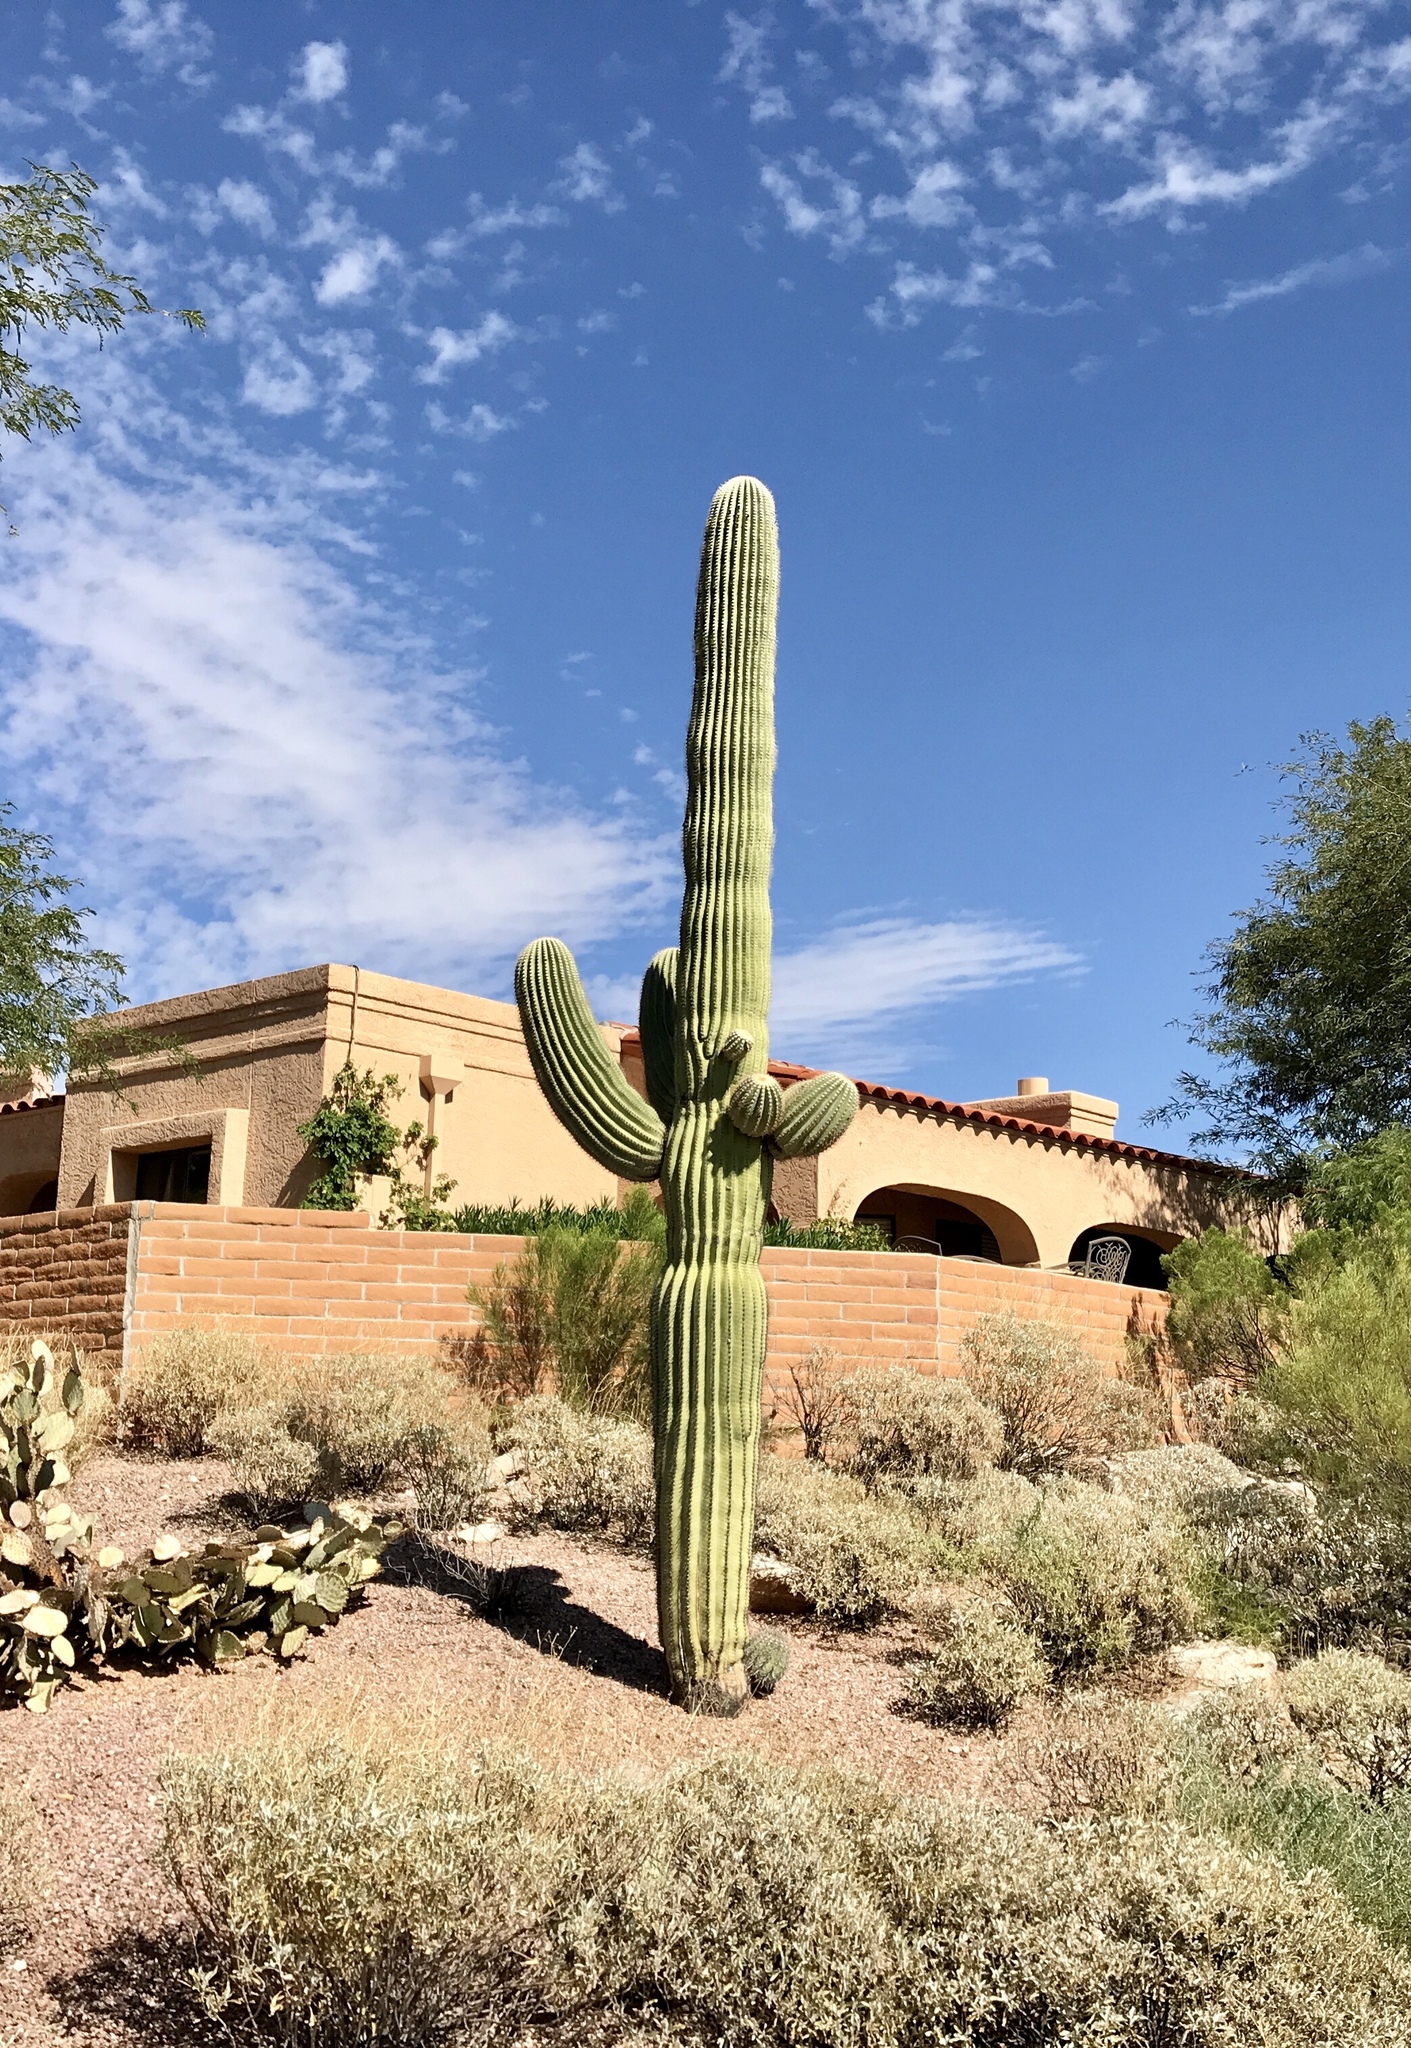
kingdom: Plantae
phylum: Tracheophyta
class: Magnoliopsida
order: Caryophyllales
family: Cactaceae
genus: Carnegiea
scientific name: Carnegiea gigantea
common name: Saguaro
